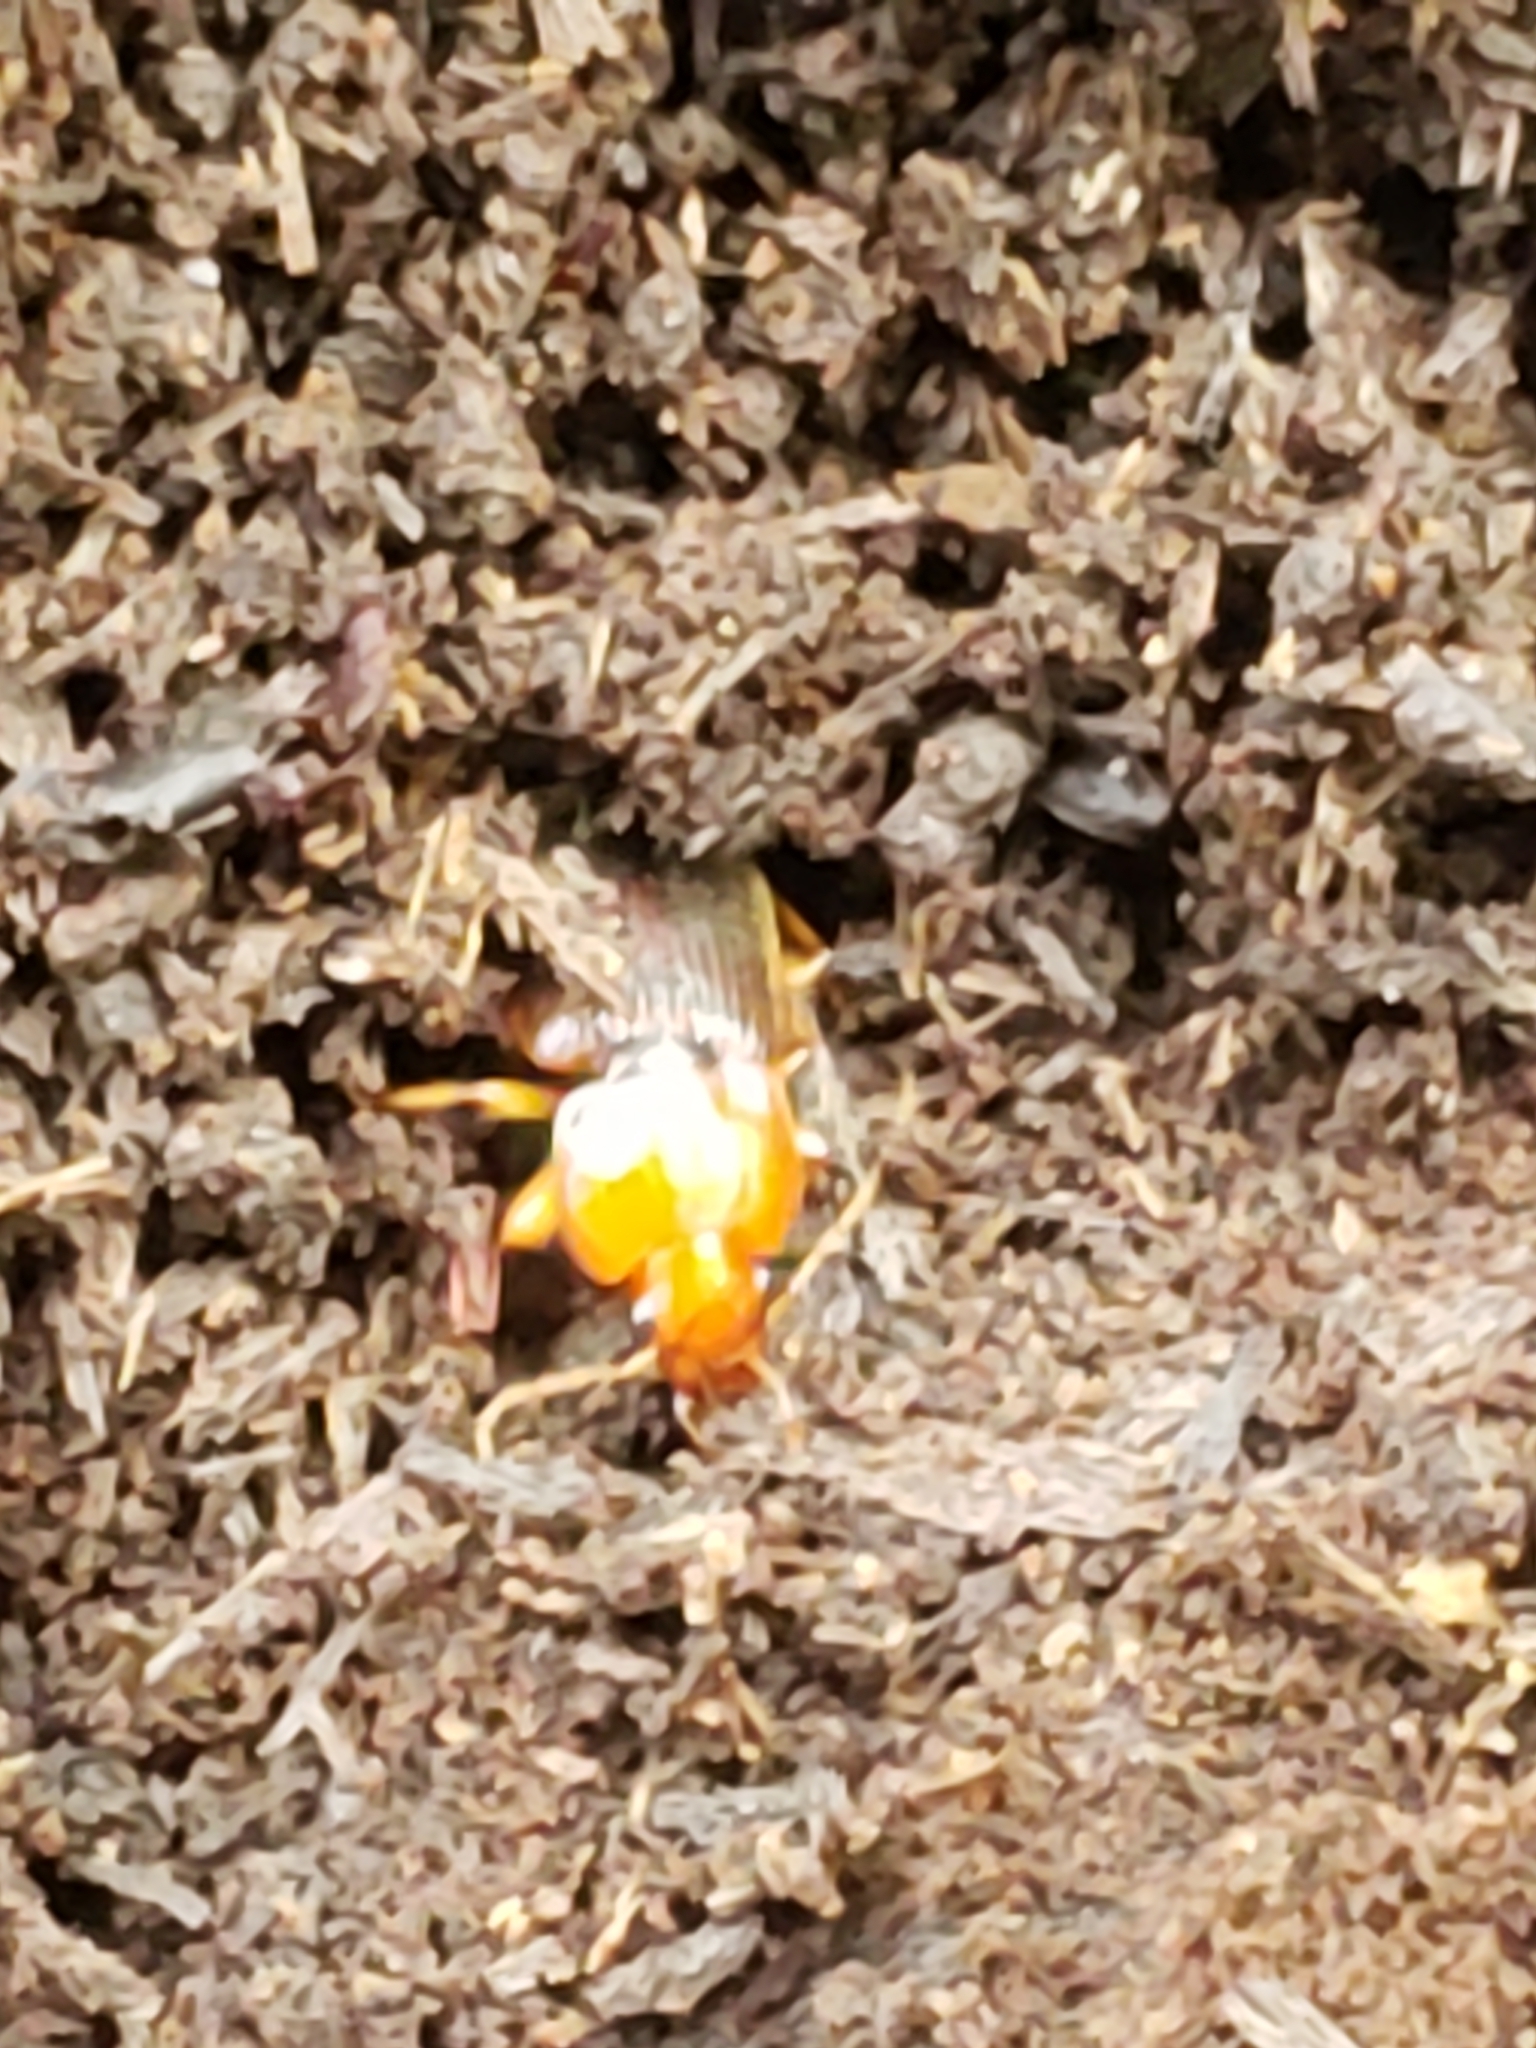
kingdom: Animalia
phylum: Arthropoda
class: Insecta
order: Coleoptera
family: Carabidae
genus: Amphasia
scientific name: Amphasia interstitialis
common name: Red-headed ground beetle
